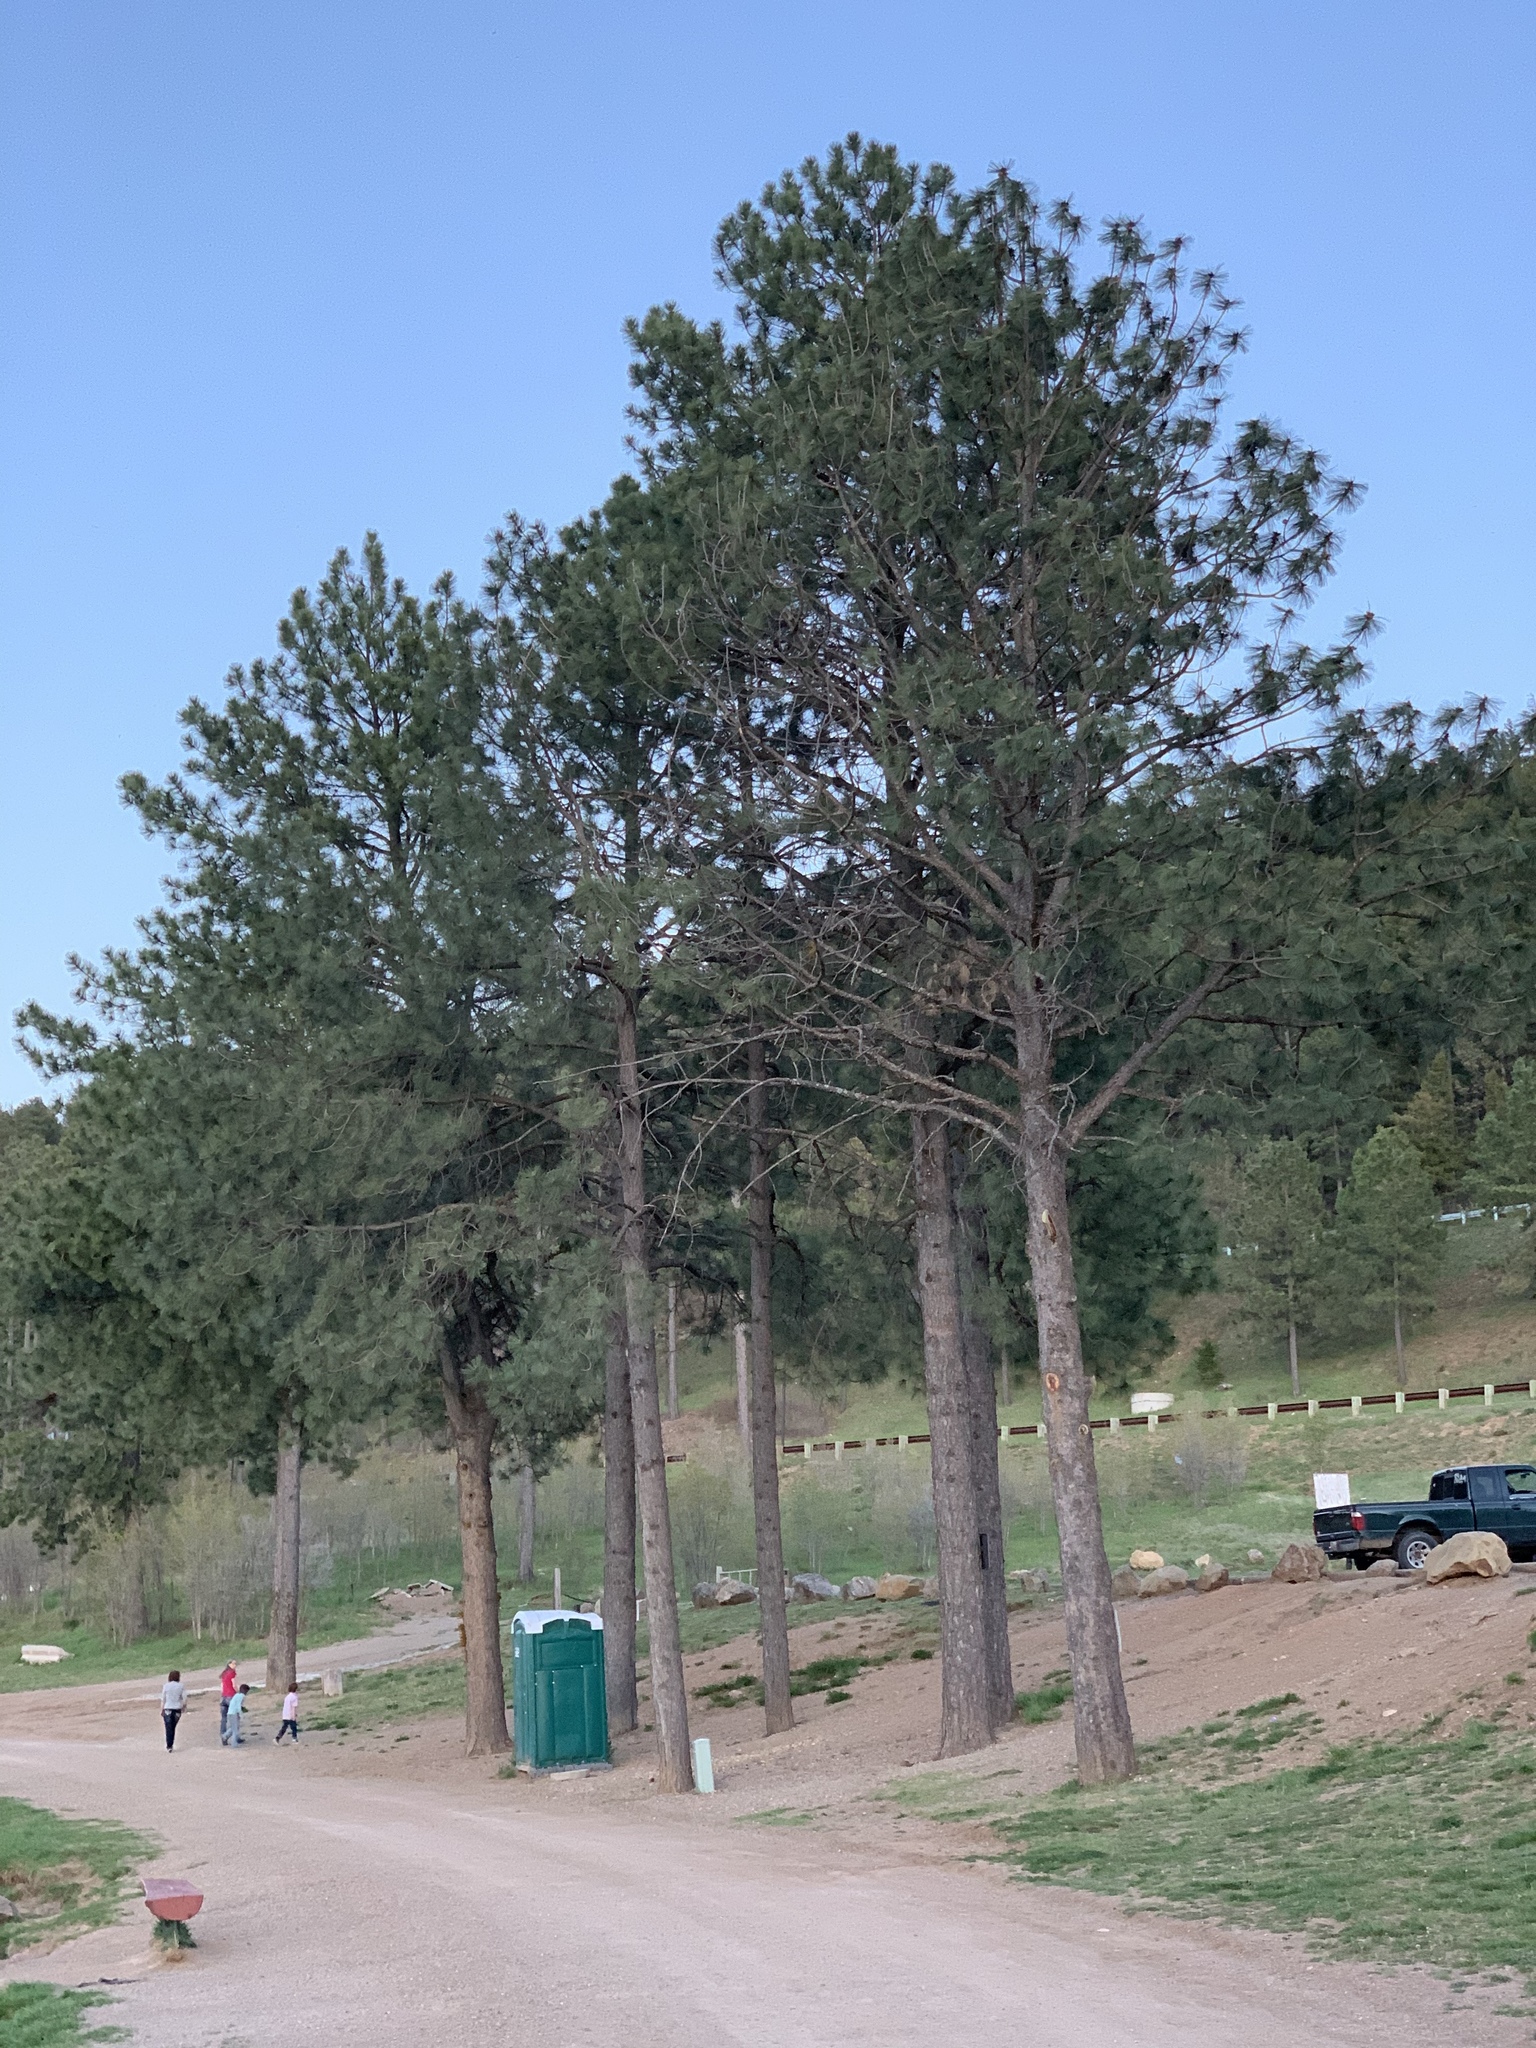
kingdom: Plantae
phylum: Tracheophyta
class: Pinopsida
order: Pinales
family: Pinaceae
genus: Pinus
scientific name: Pinus ponderosa
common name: Western yellow-pine
